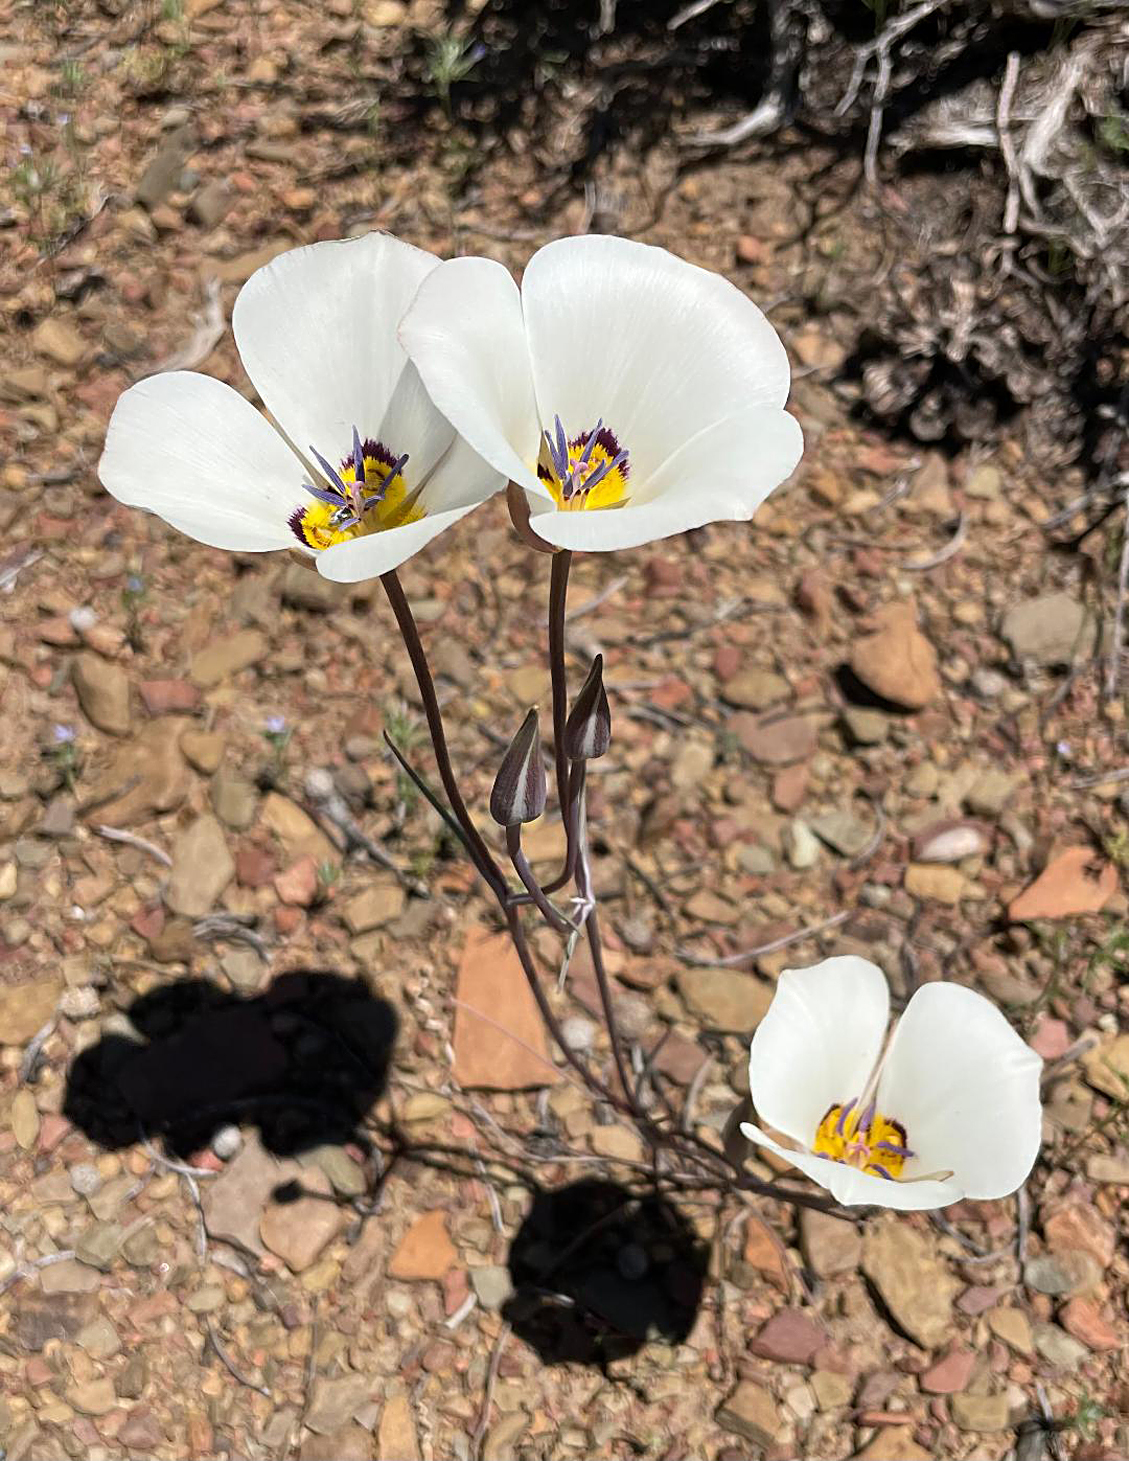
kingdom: Plantae
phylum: Tracheophyta
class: Liliopsida
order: Liliales
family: Liliaceae
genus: Calochortus
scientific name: Calochortus bruneaunis
